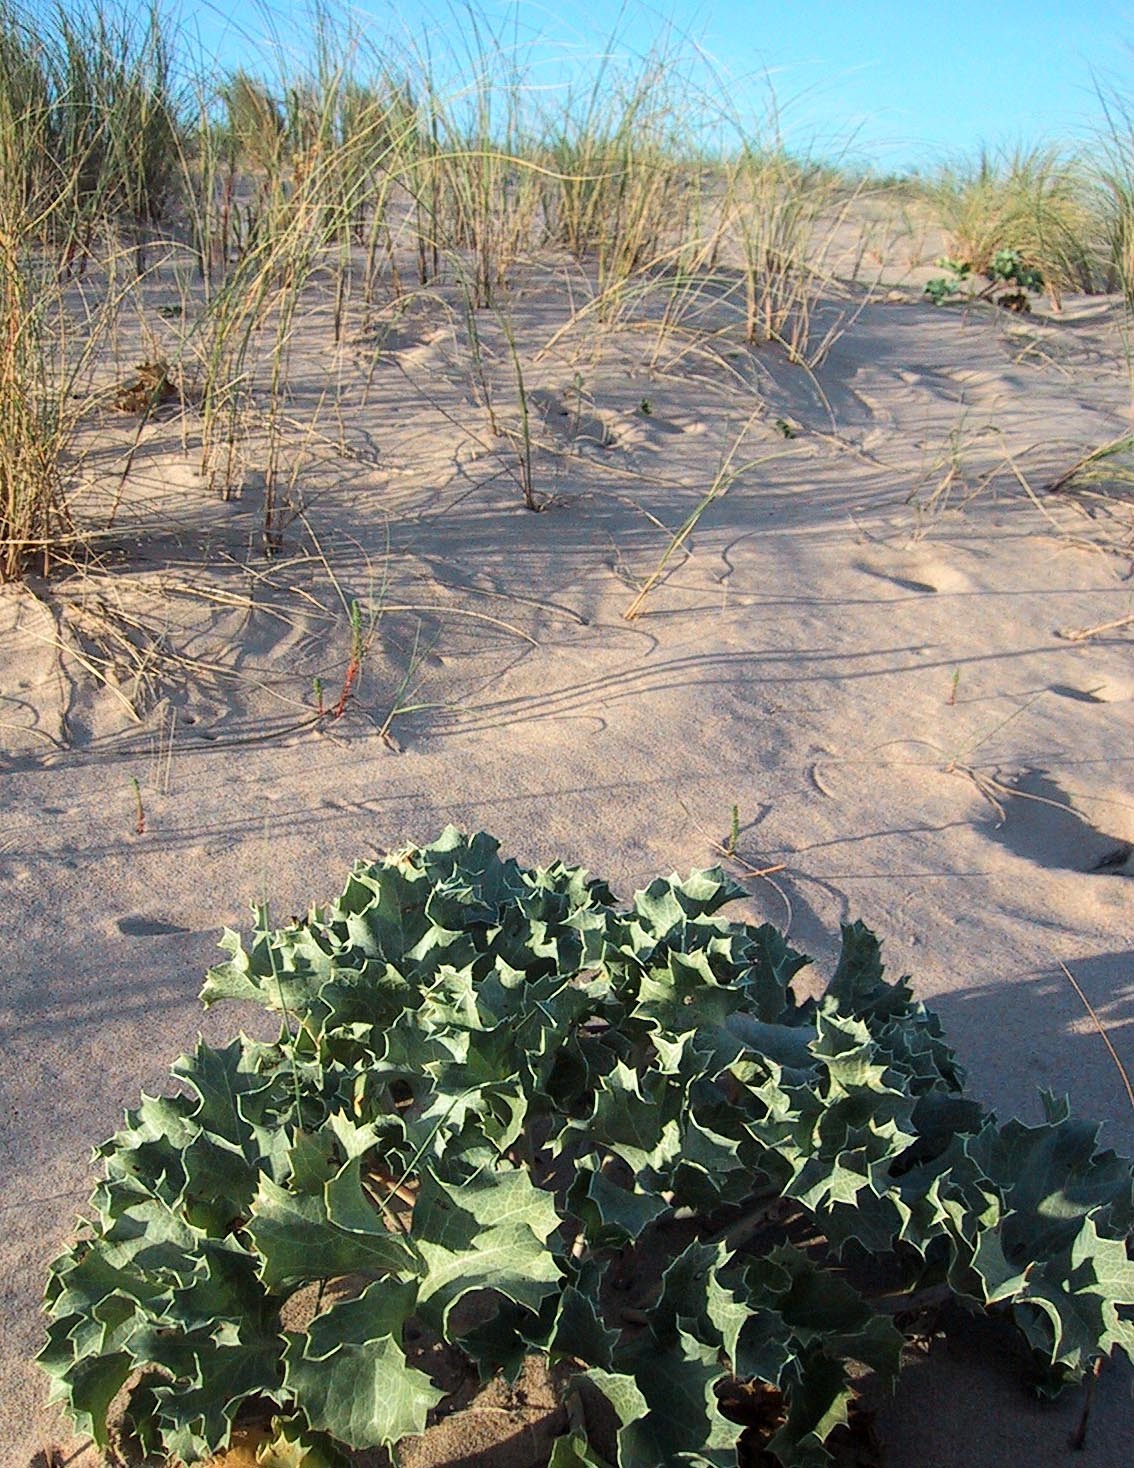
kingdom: Plantae
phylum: Tracheophyta
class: Magnoliopsida
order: Apiales
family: Apiaceae
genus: Eryngium
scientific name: Eryngium maritimum
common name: Sea-holly
